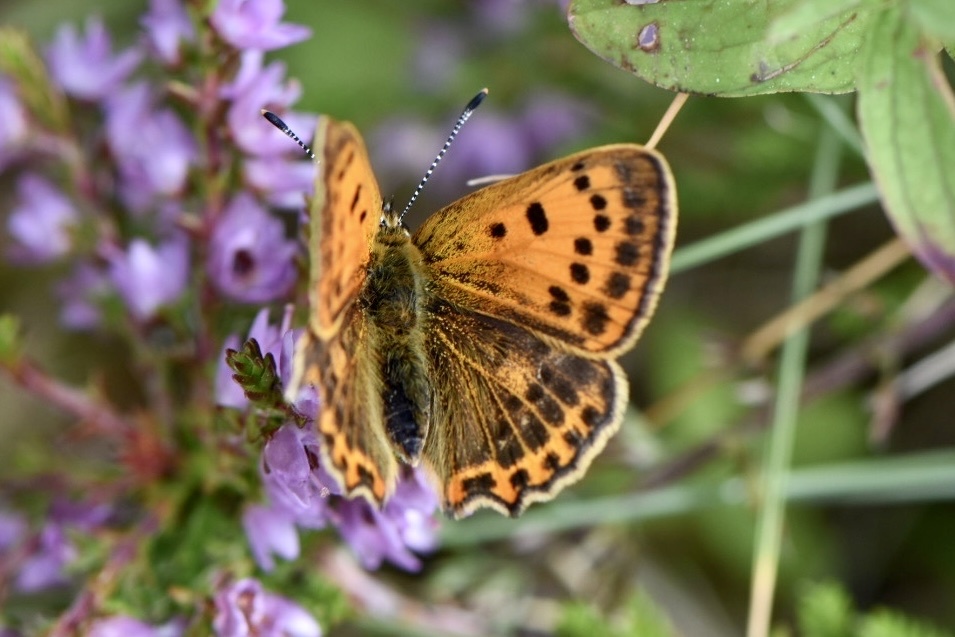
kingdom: Animalia
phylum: Arthropoda
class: Insecta
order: Lepidoptera
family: Lycaenidae
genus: Lycaena
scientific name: Lycaena virgaureae
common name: Scarce copper
